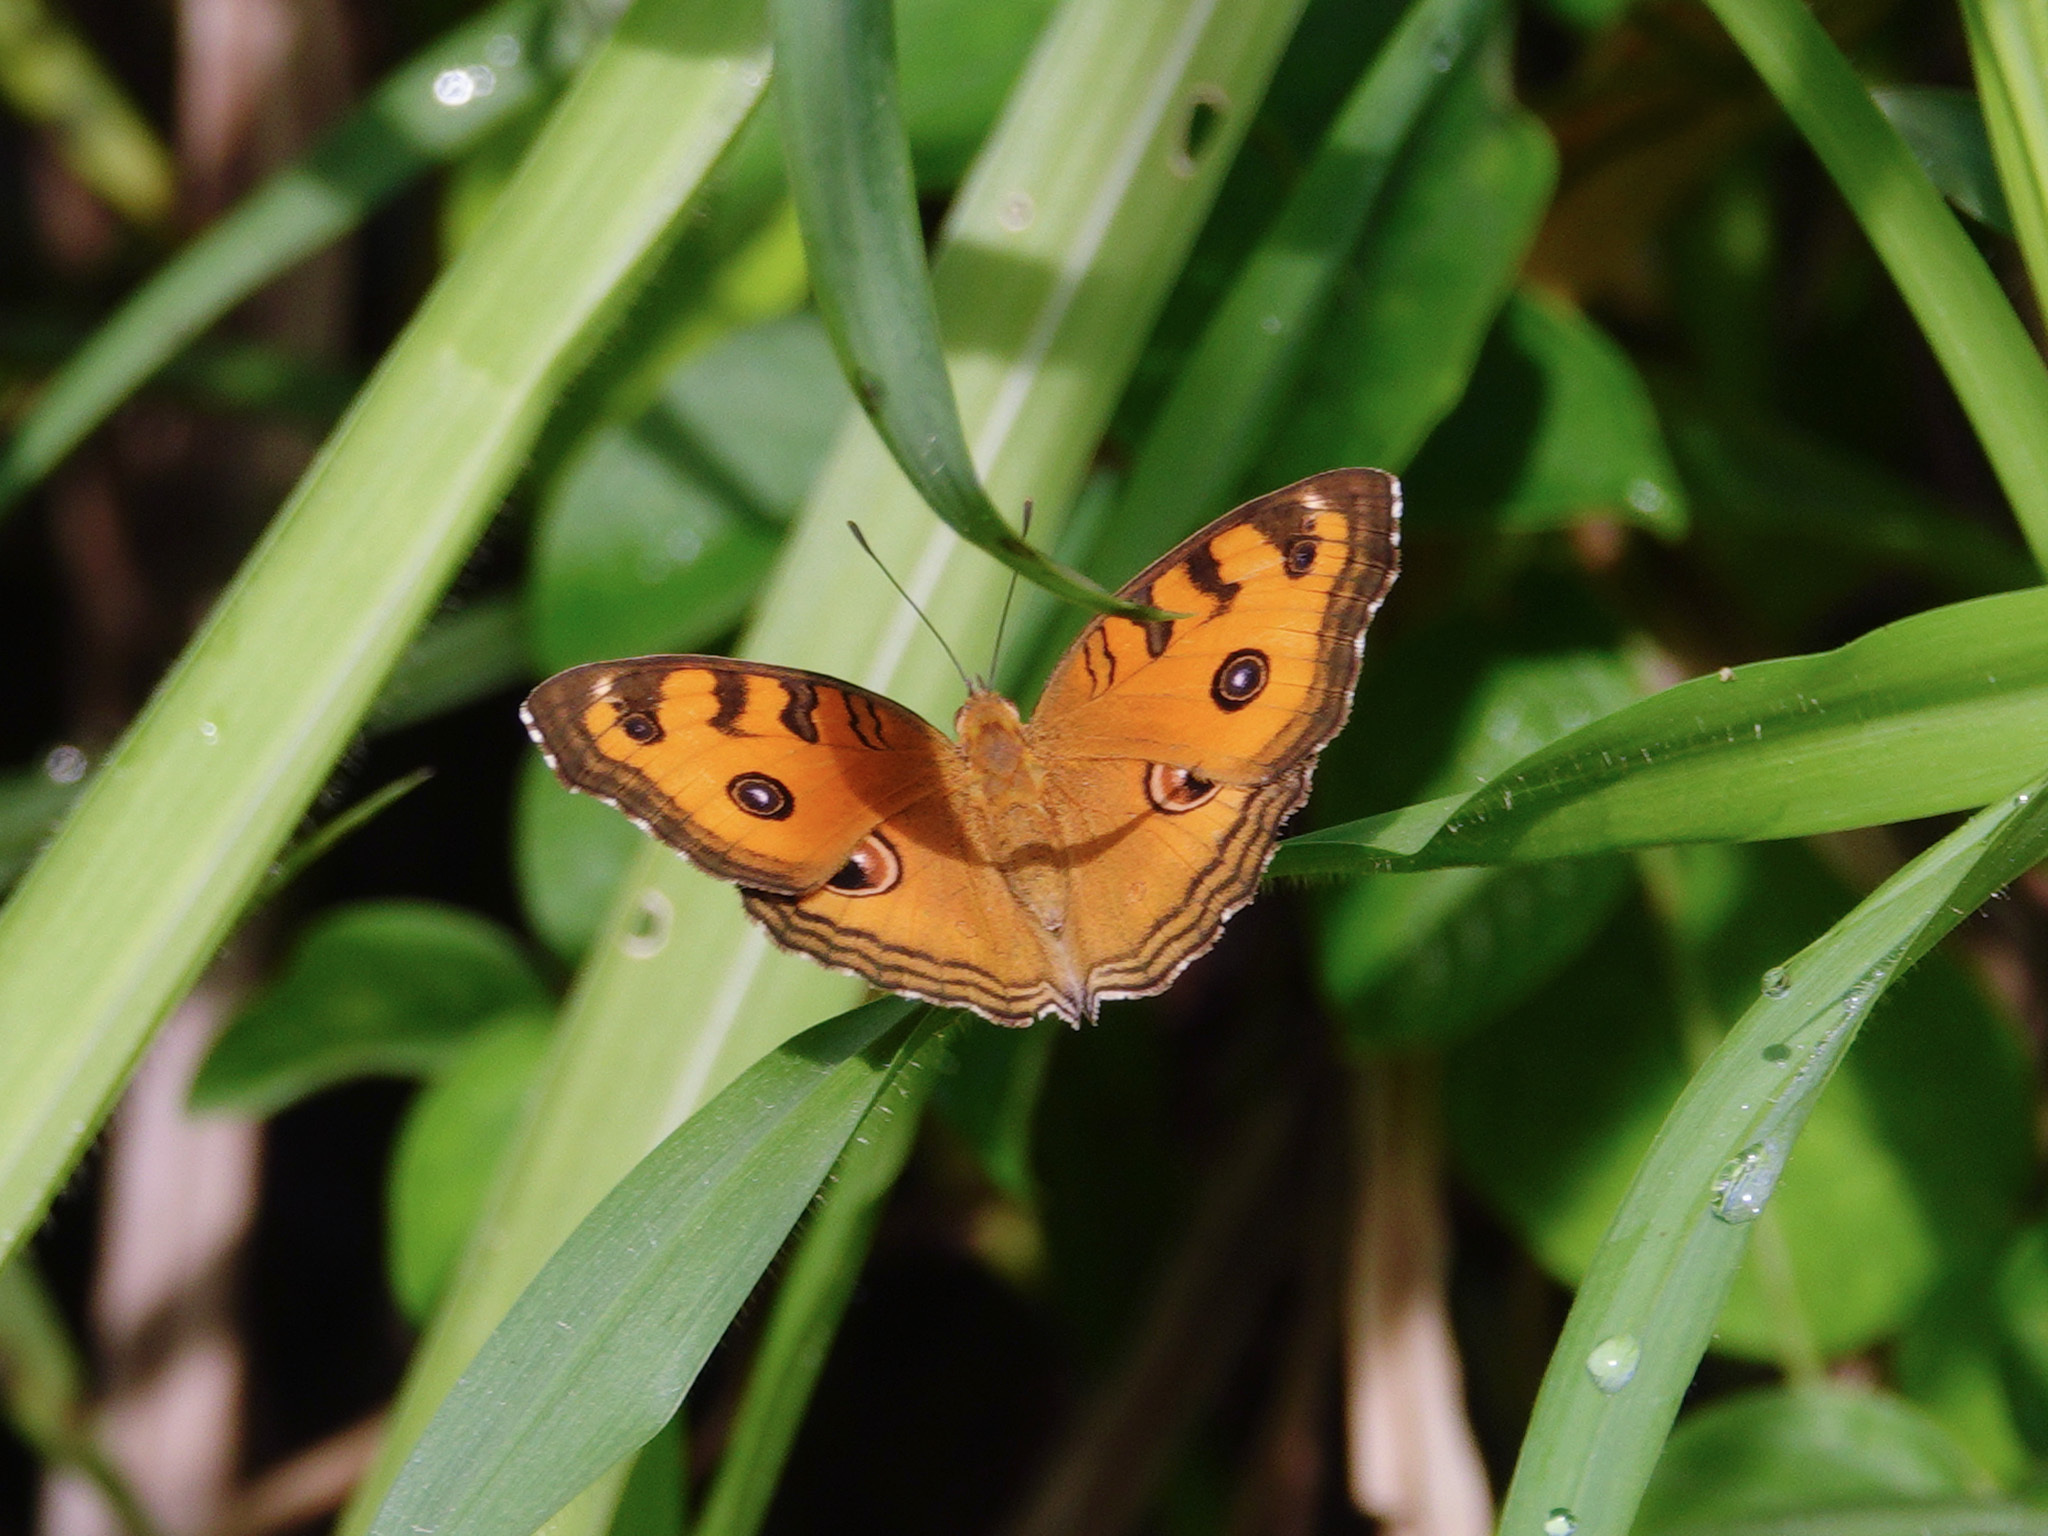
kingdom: Animalia
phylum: Arthropoda
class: Insecta
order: Lepidoptera
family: Nymphalidae
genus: Junonia
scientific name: Junonia almana
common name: Peacock pansy
